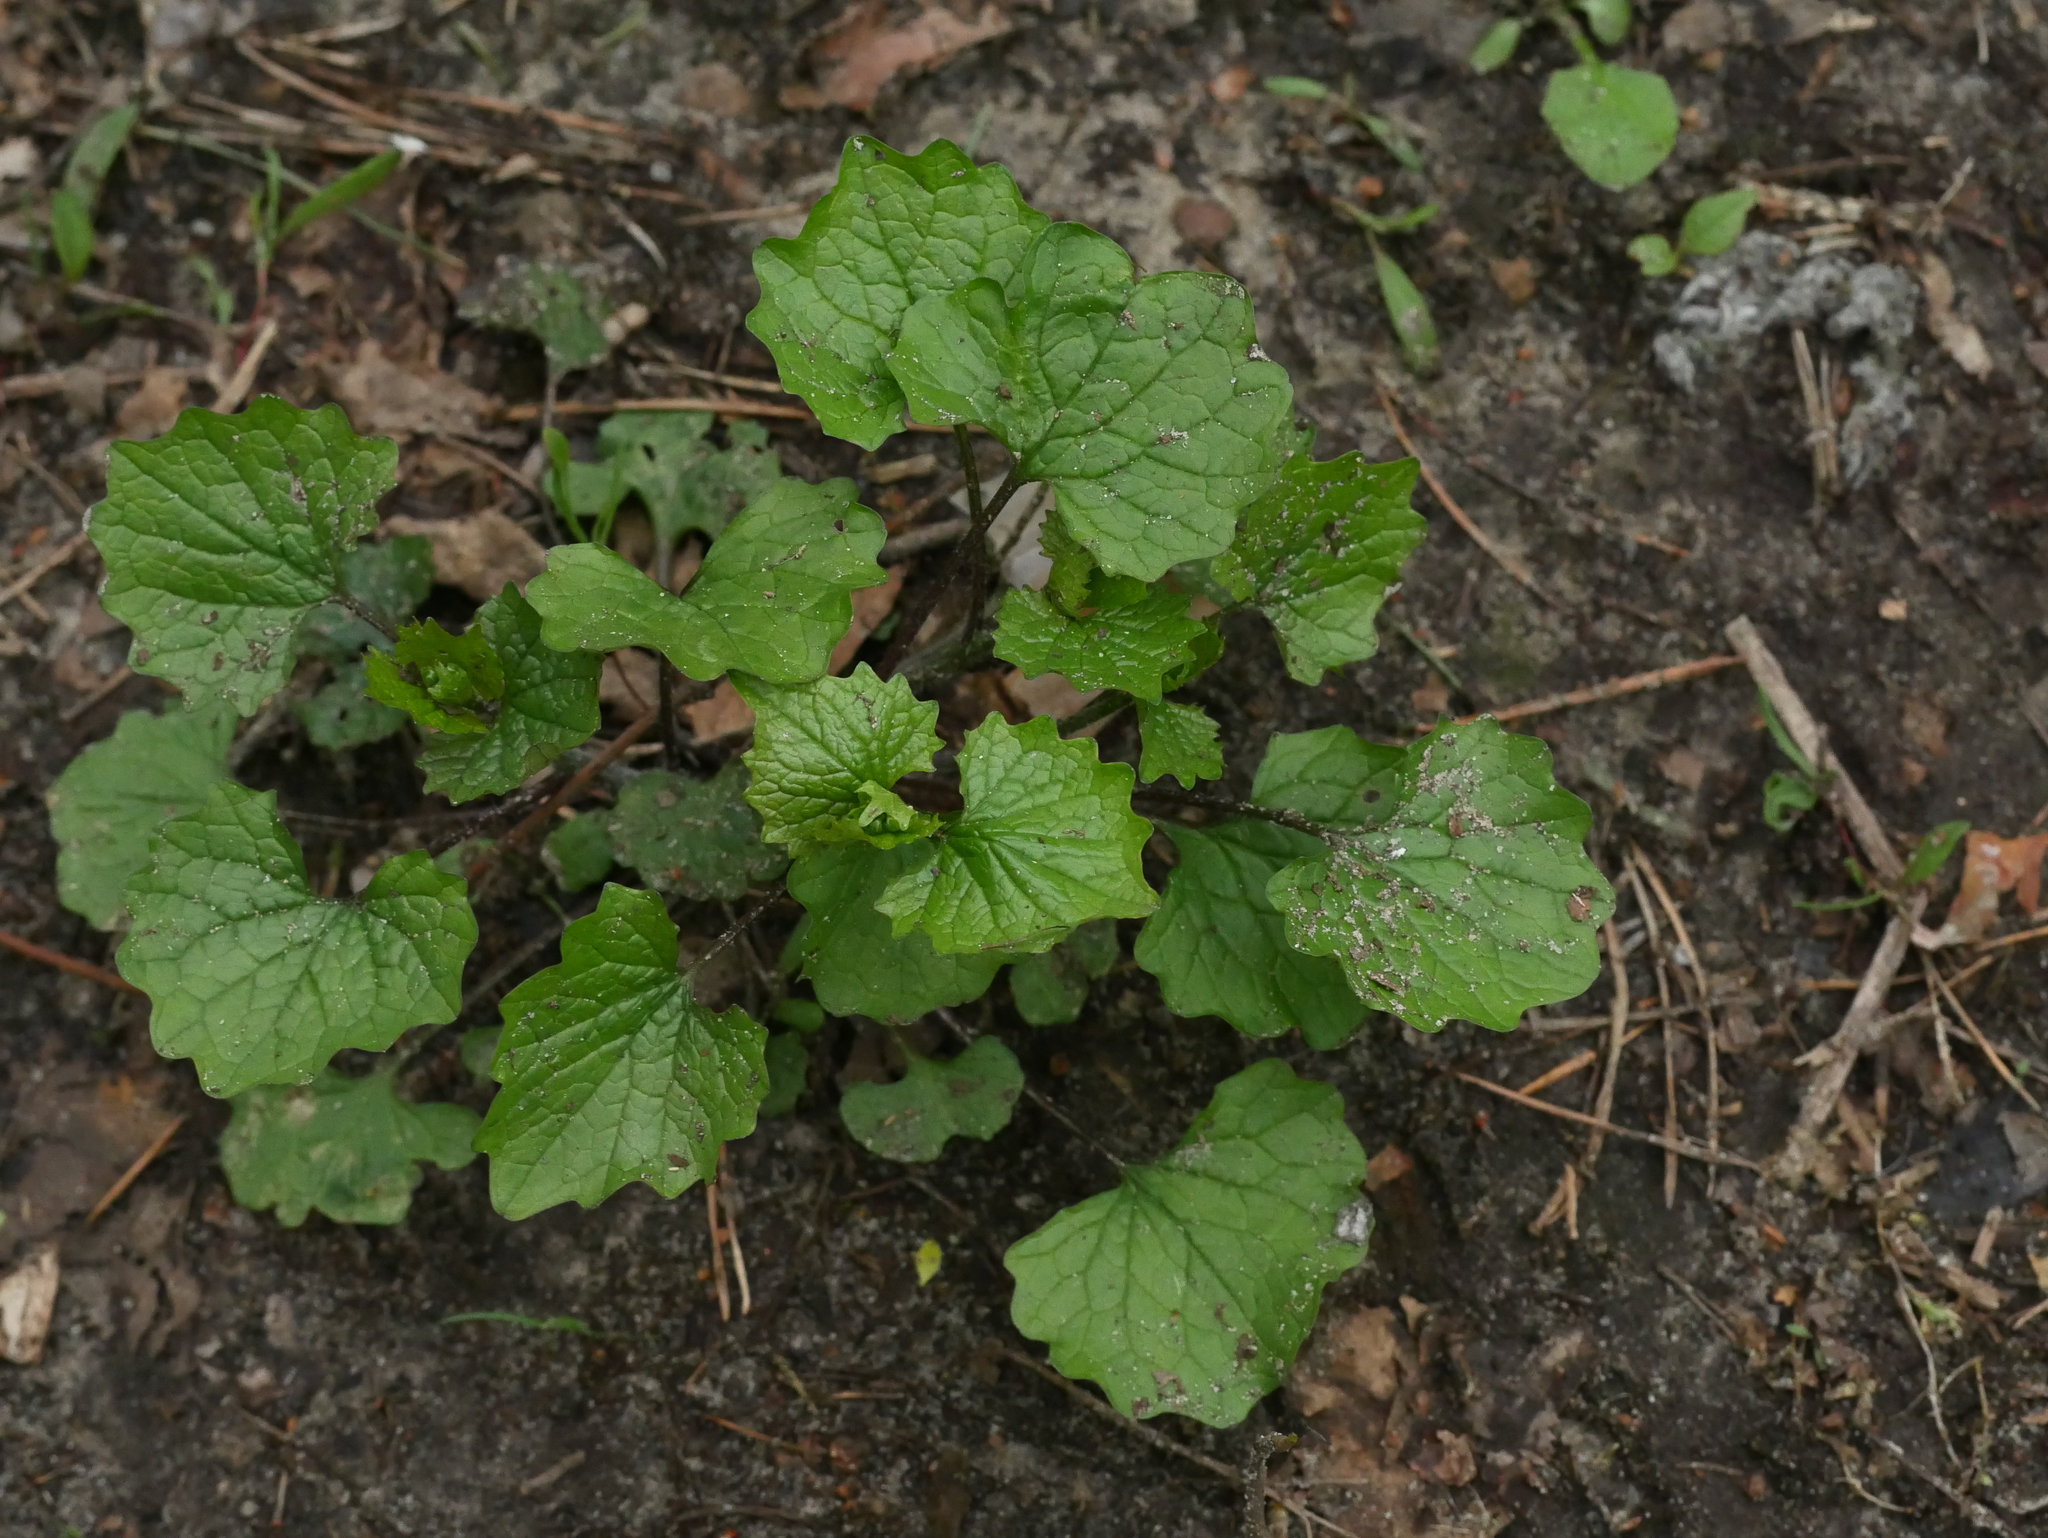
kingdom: Plantae
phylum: Tracheophyta
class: Magnoliopsida
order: Brassicales
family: Brassicaceae
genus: Alliaria
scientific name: Alliaria petiolata
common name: Garlic mustard
